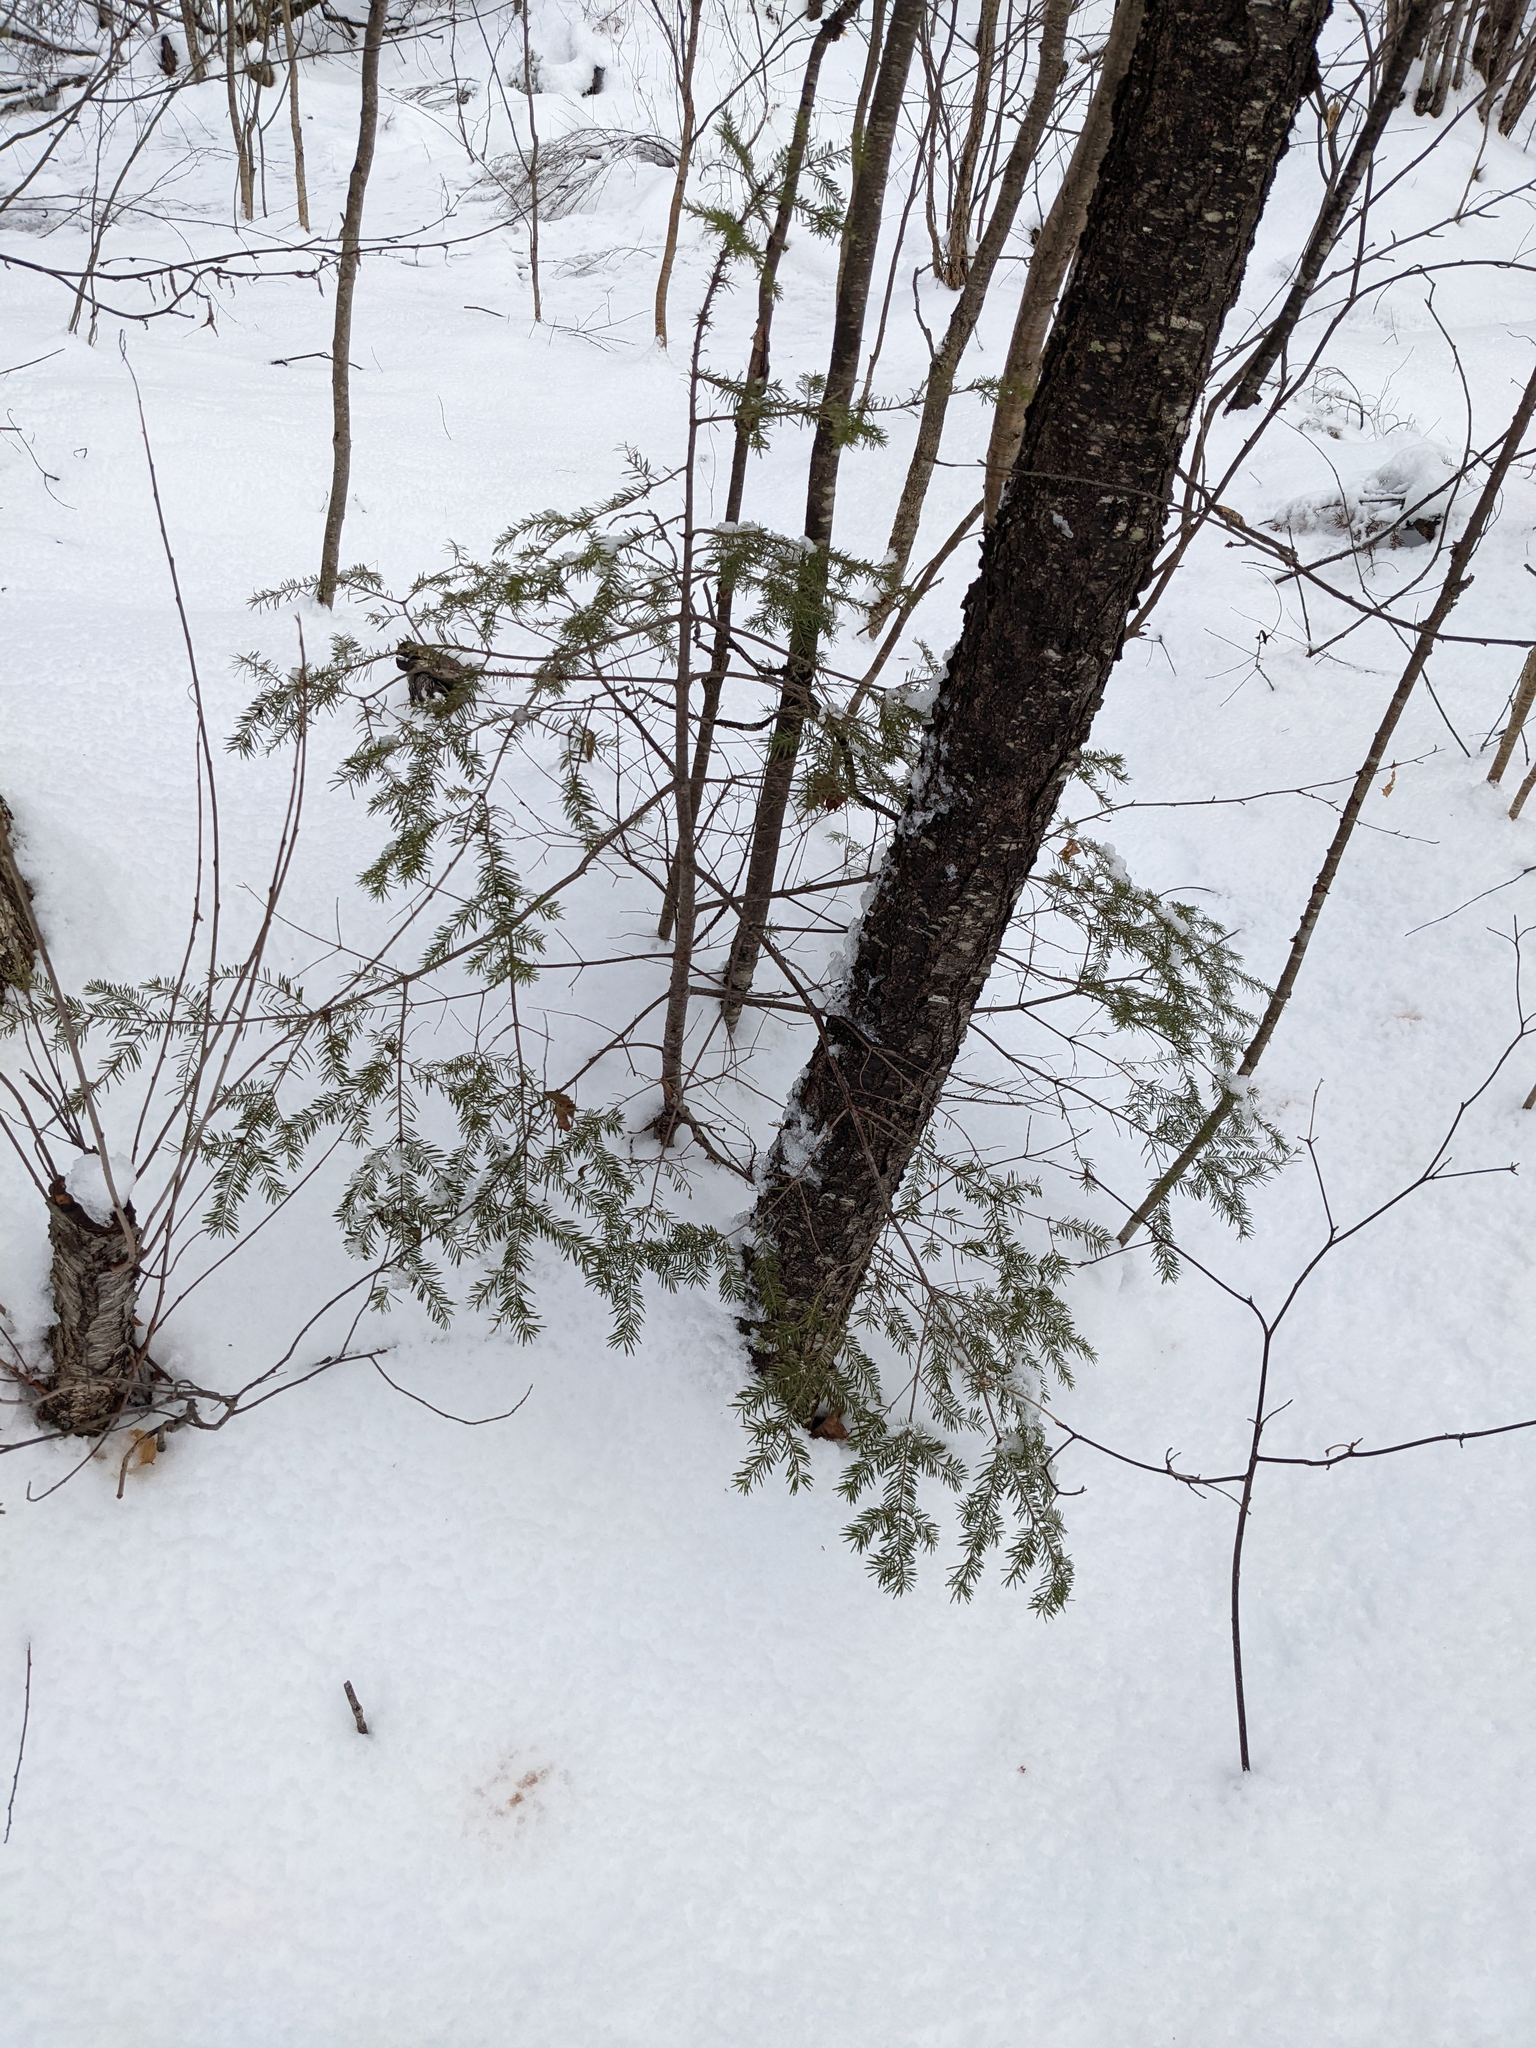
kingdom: Plantae
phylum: Tracheophyta
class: Pinopsida
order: Pinales
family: Pinaceae
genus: Abies
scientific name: Abies balsamea
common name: Balsam fir
